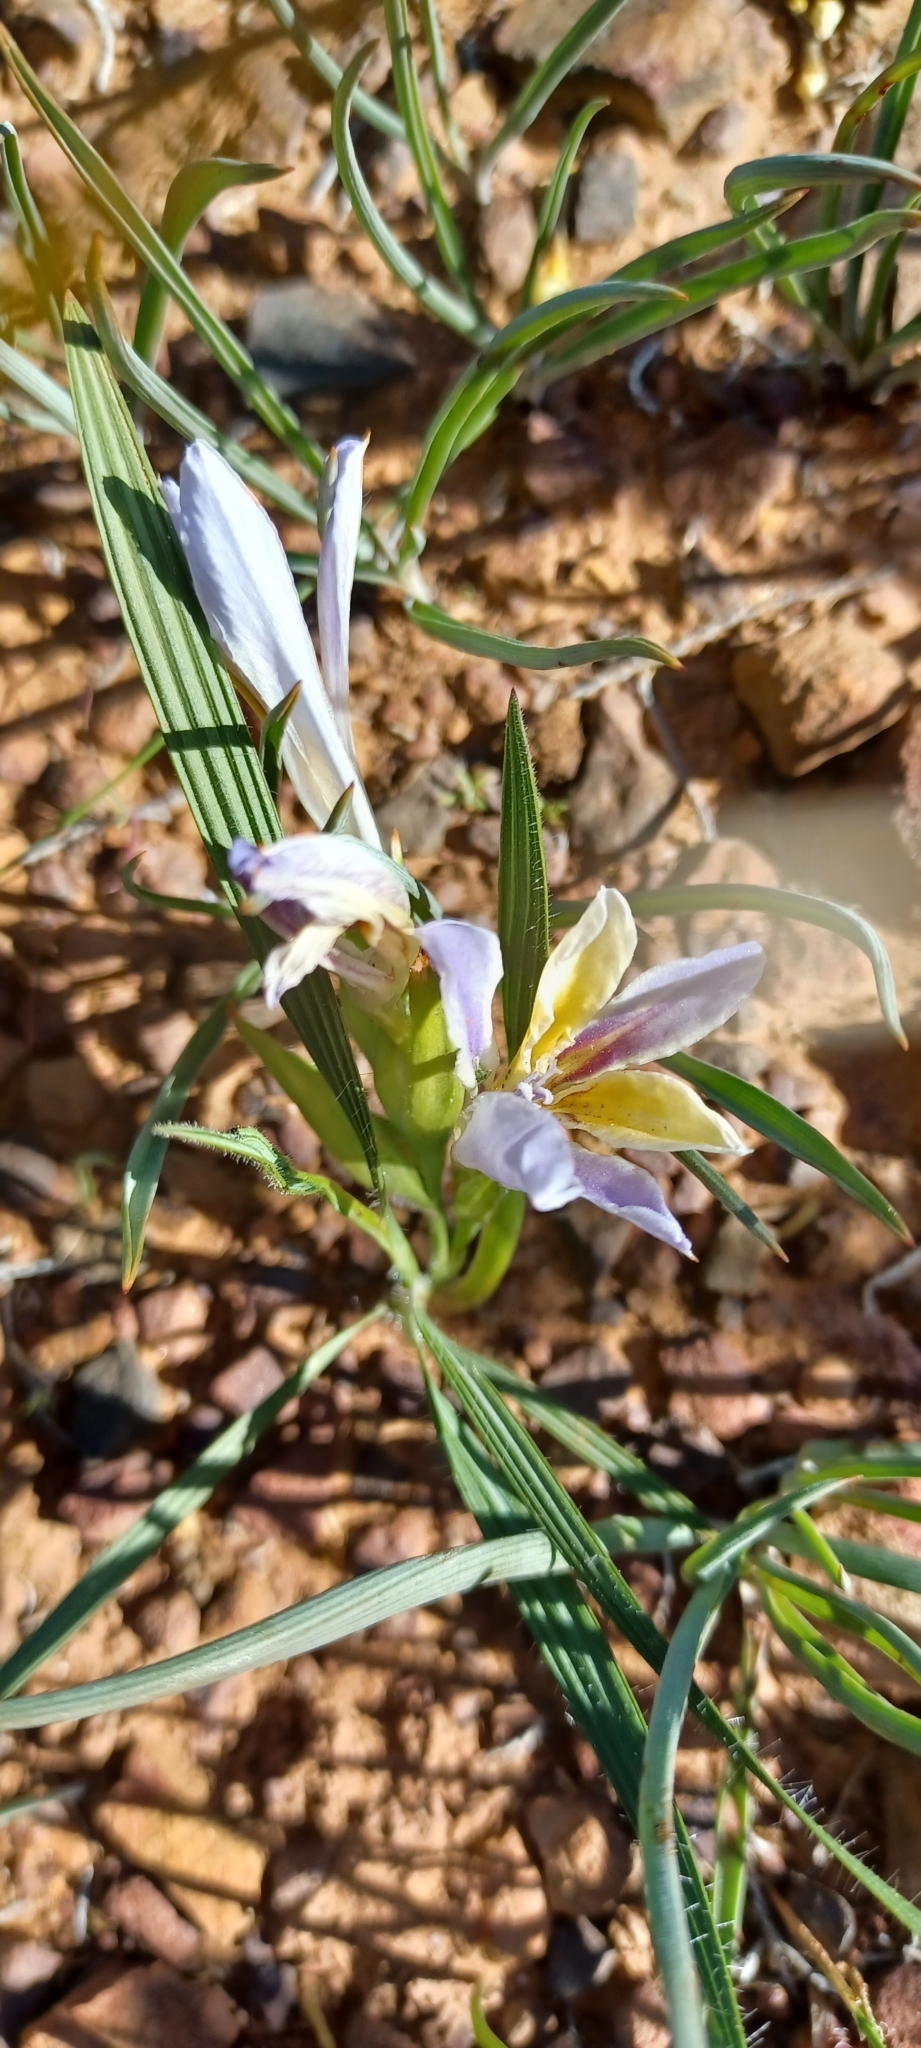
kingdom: Plantae
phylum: Tracheophyta
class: Liliopsida
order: Asparagales
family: Iridaceae
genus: Babiana
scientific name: Babiana patula
